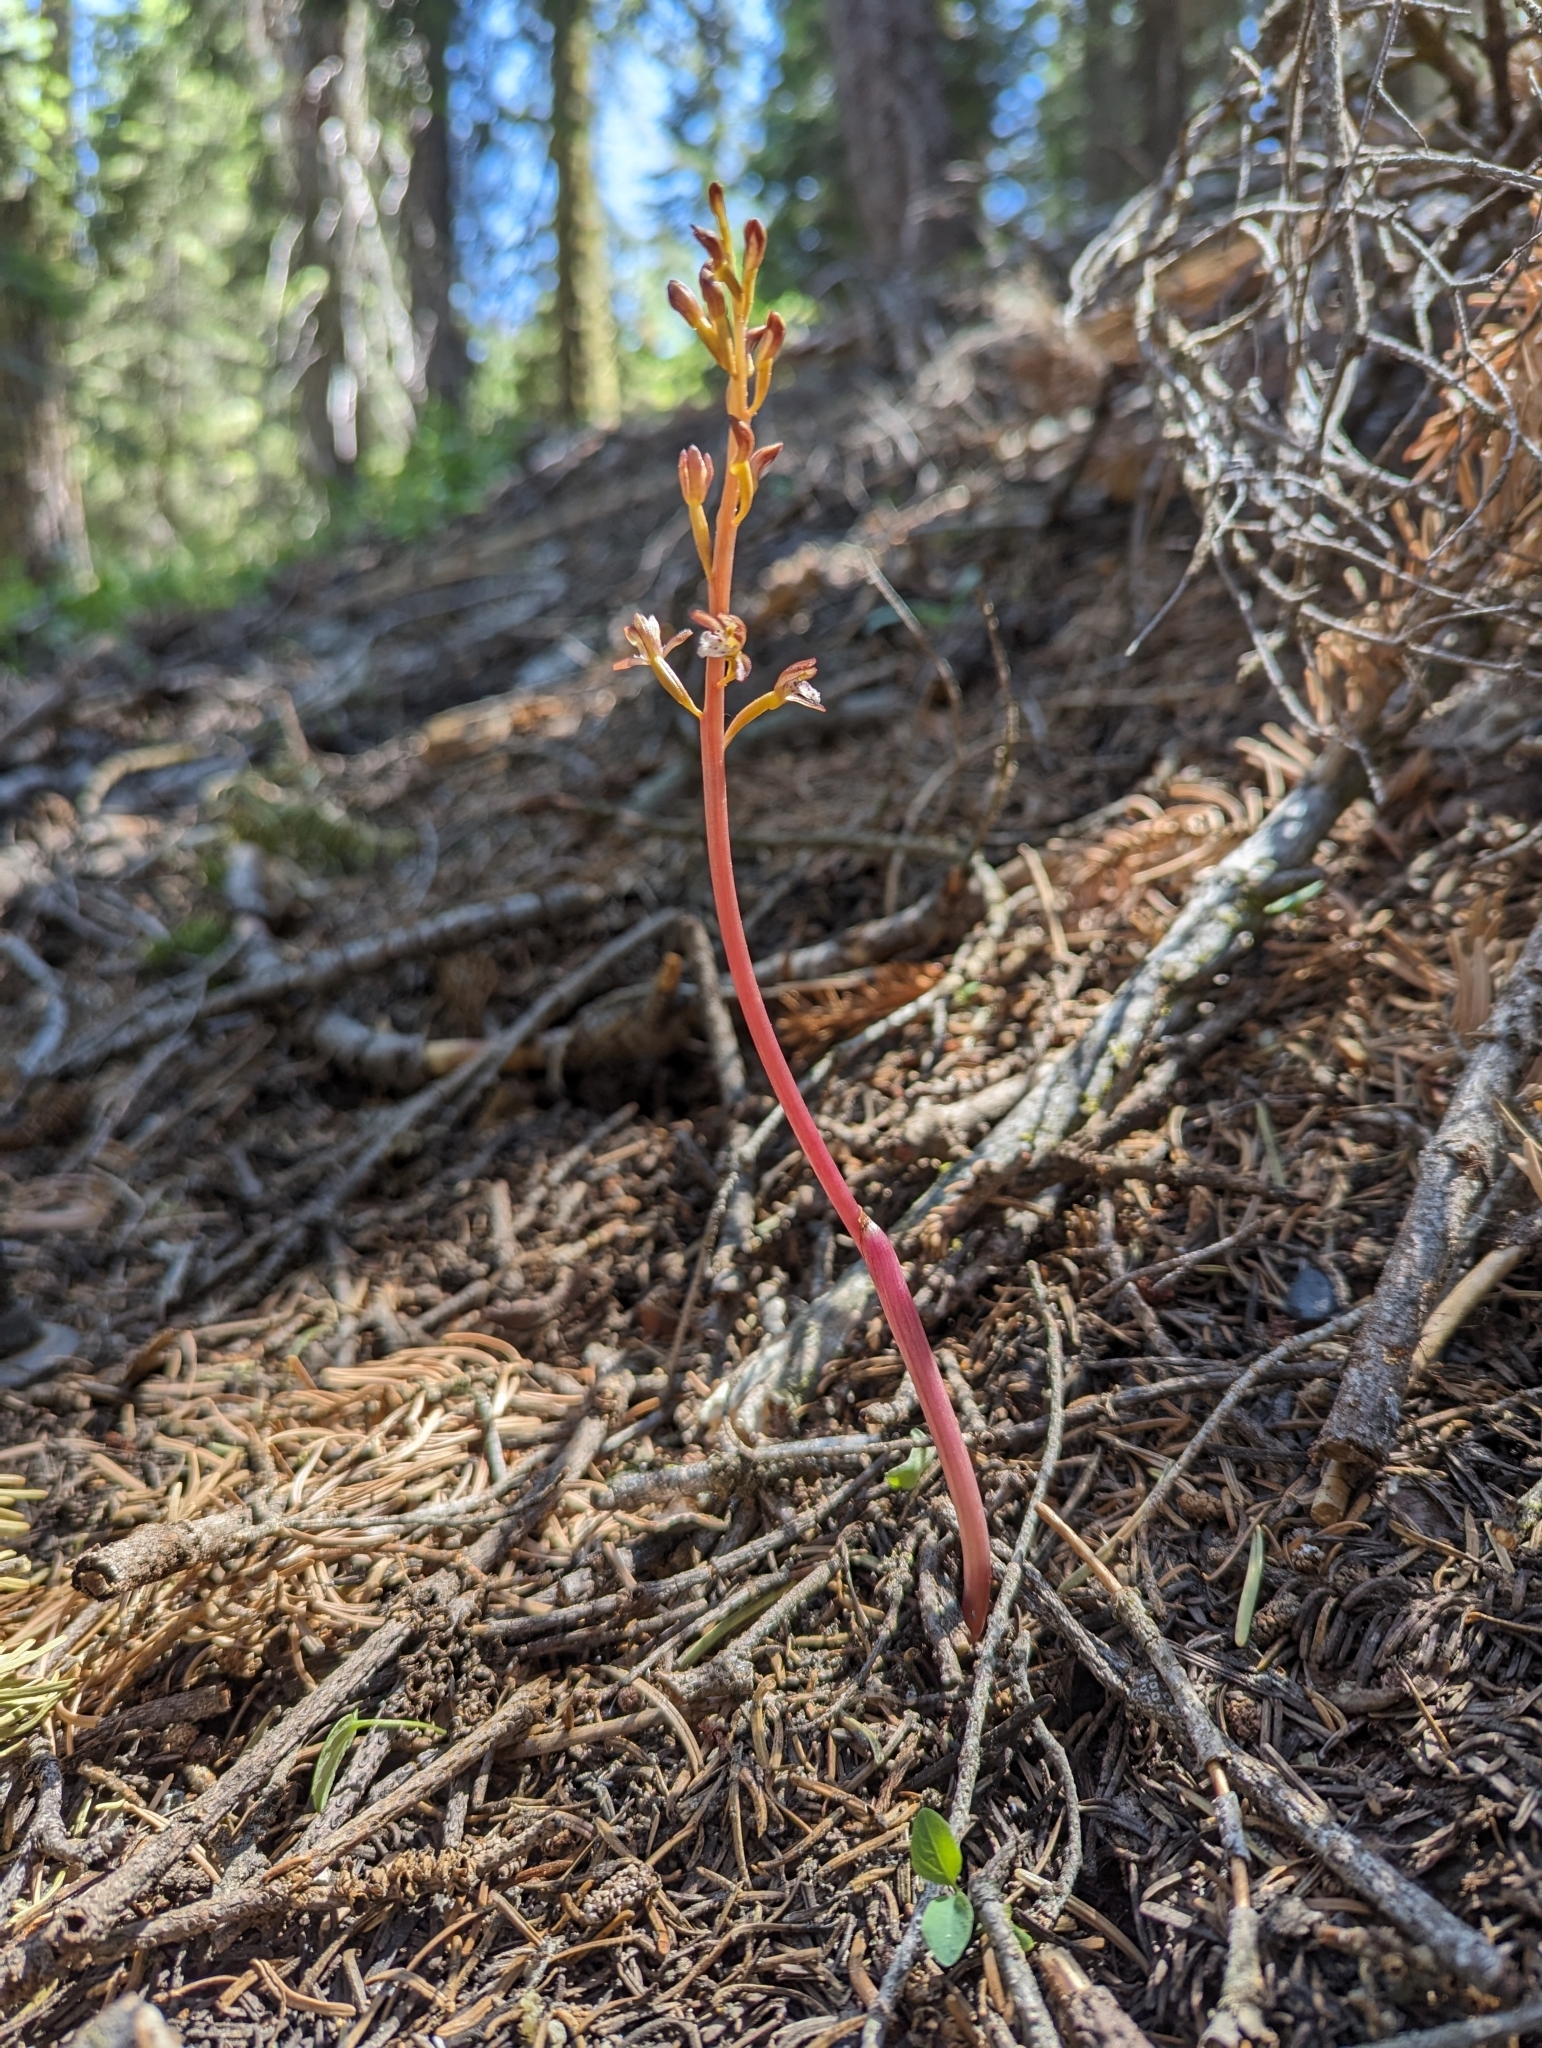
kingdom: Plantae
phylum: Tracheophyta
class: Liliopsida
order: Asparagales
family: Orchidaceae
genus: Corallorhiza
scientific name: Corallorhiza maculata
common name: Spotted coralroot
